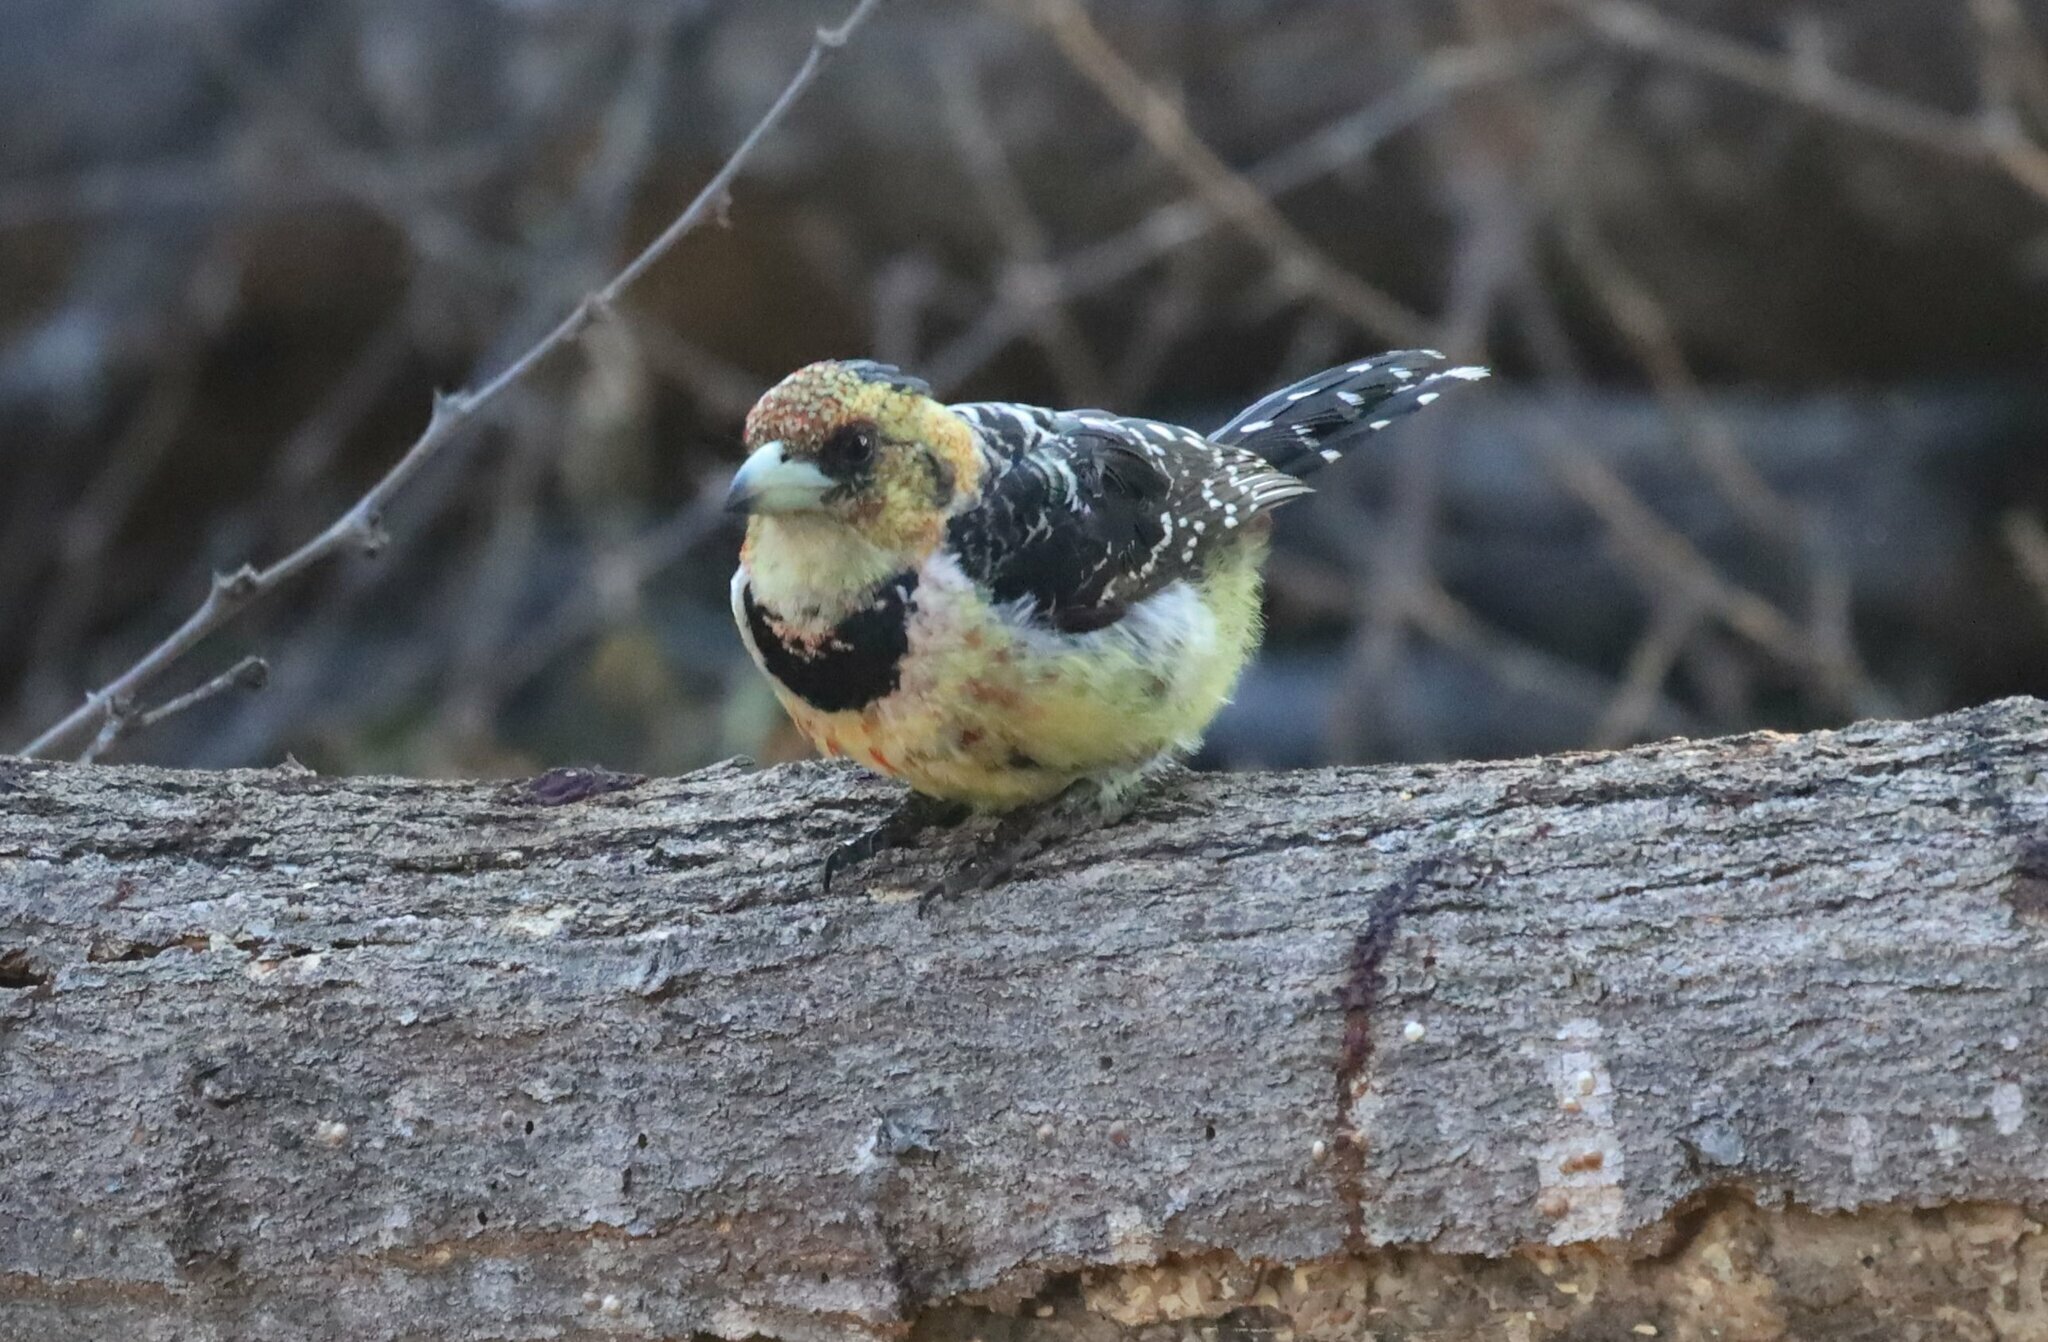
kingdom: Animalia
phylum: Chordata
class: Aves
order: Piciformes
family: Lybiidae
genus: Trachyphonus
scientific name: Trachyphonus vaillantii
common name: Crested barbet
